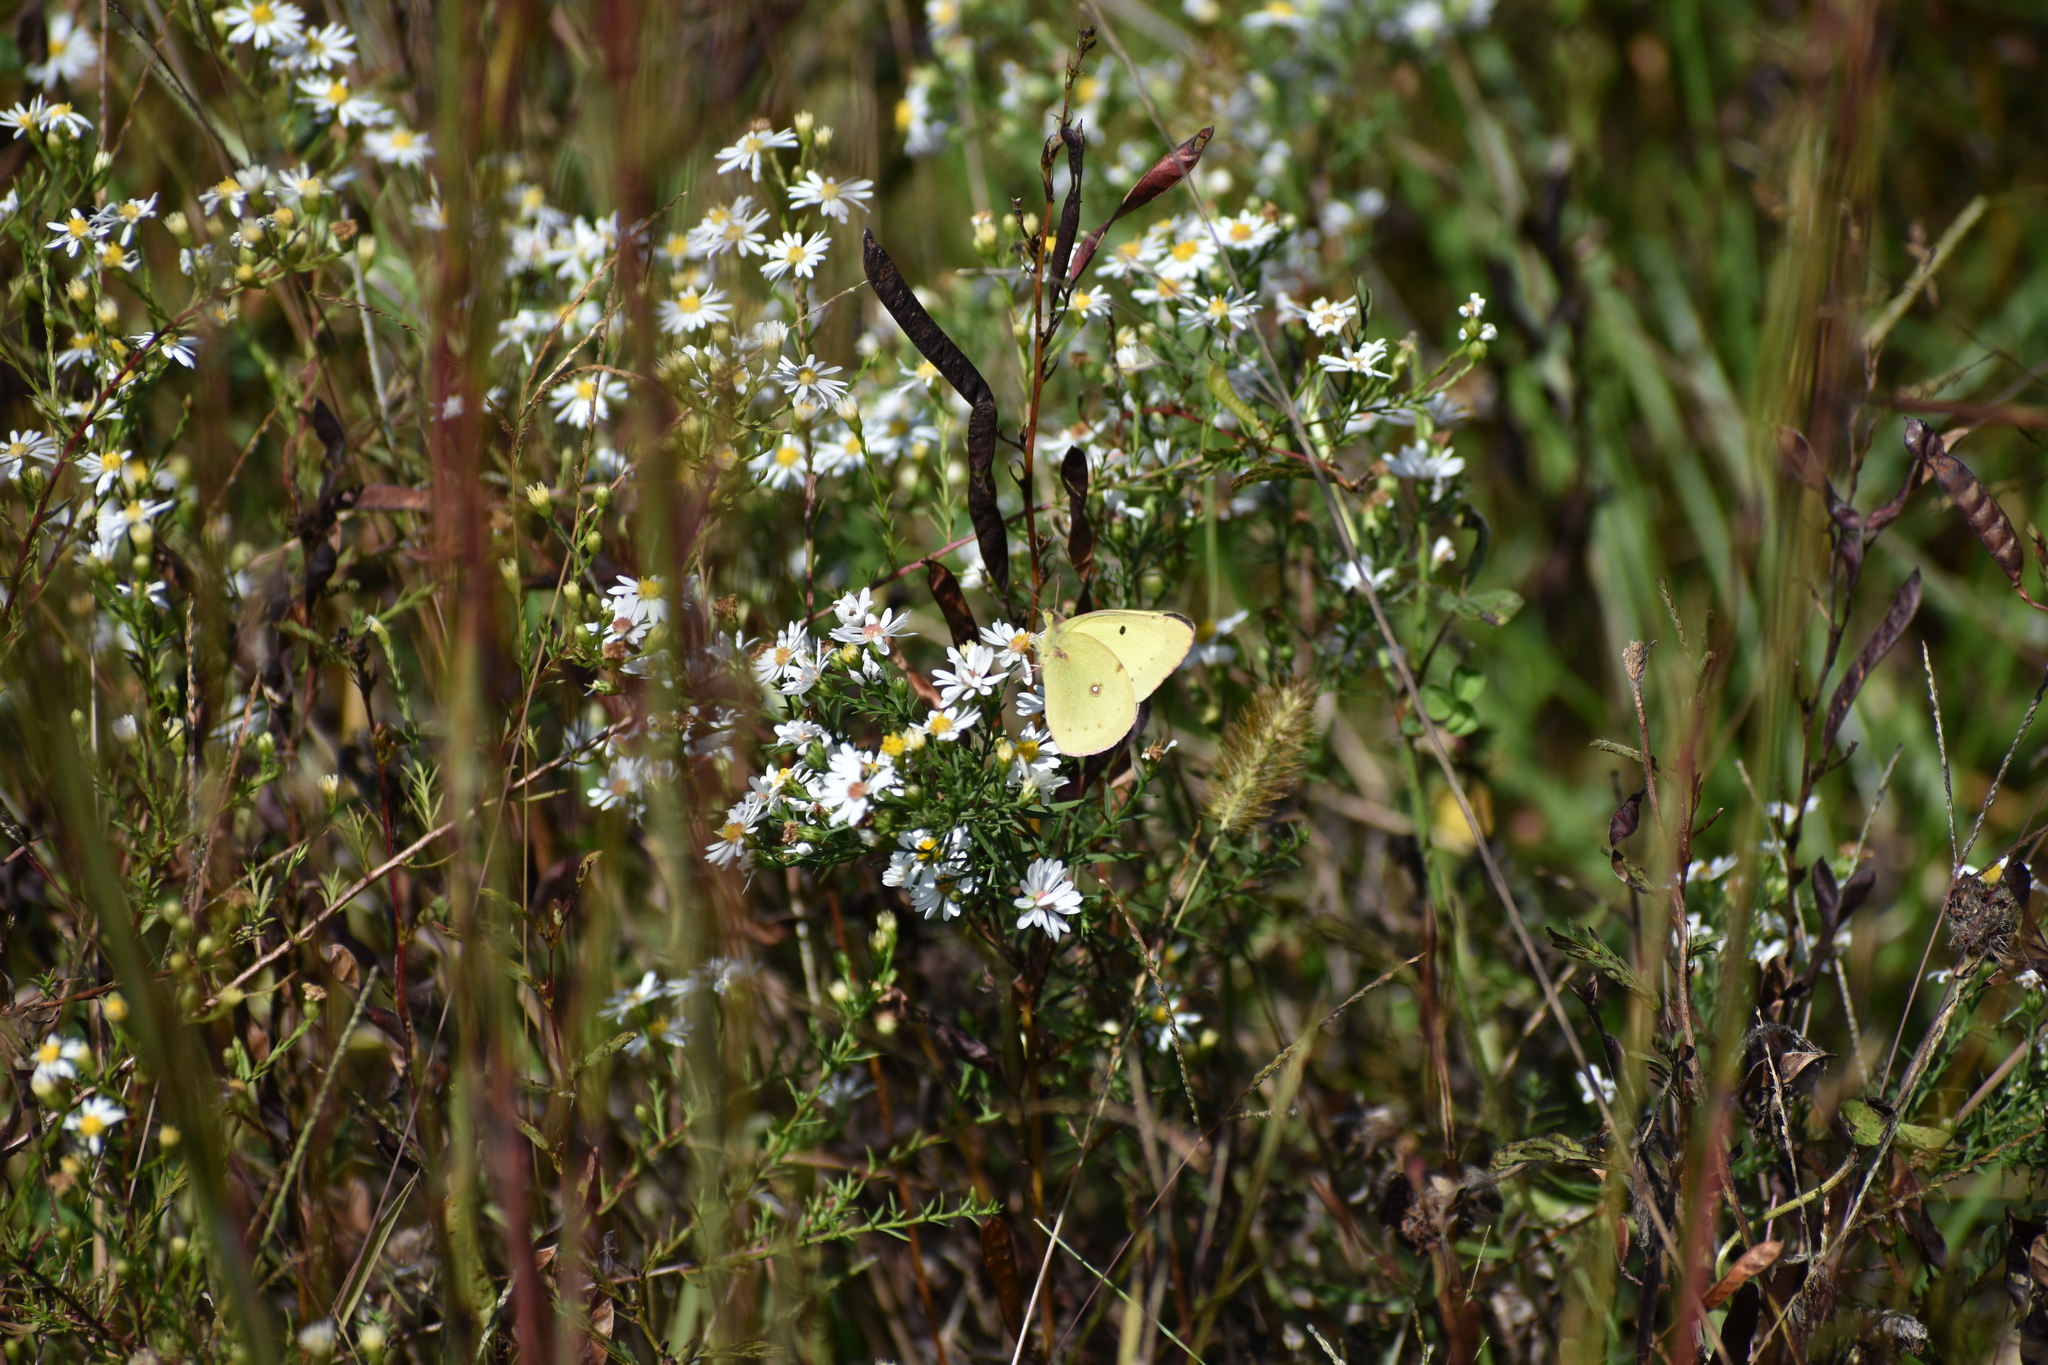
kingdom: Animalia
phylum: Arthropoda
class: Insecta
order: Lepidoptera
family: Pieridae
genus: Colias
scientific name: Colias philodice
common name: Clouded sulphur
